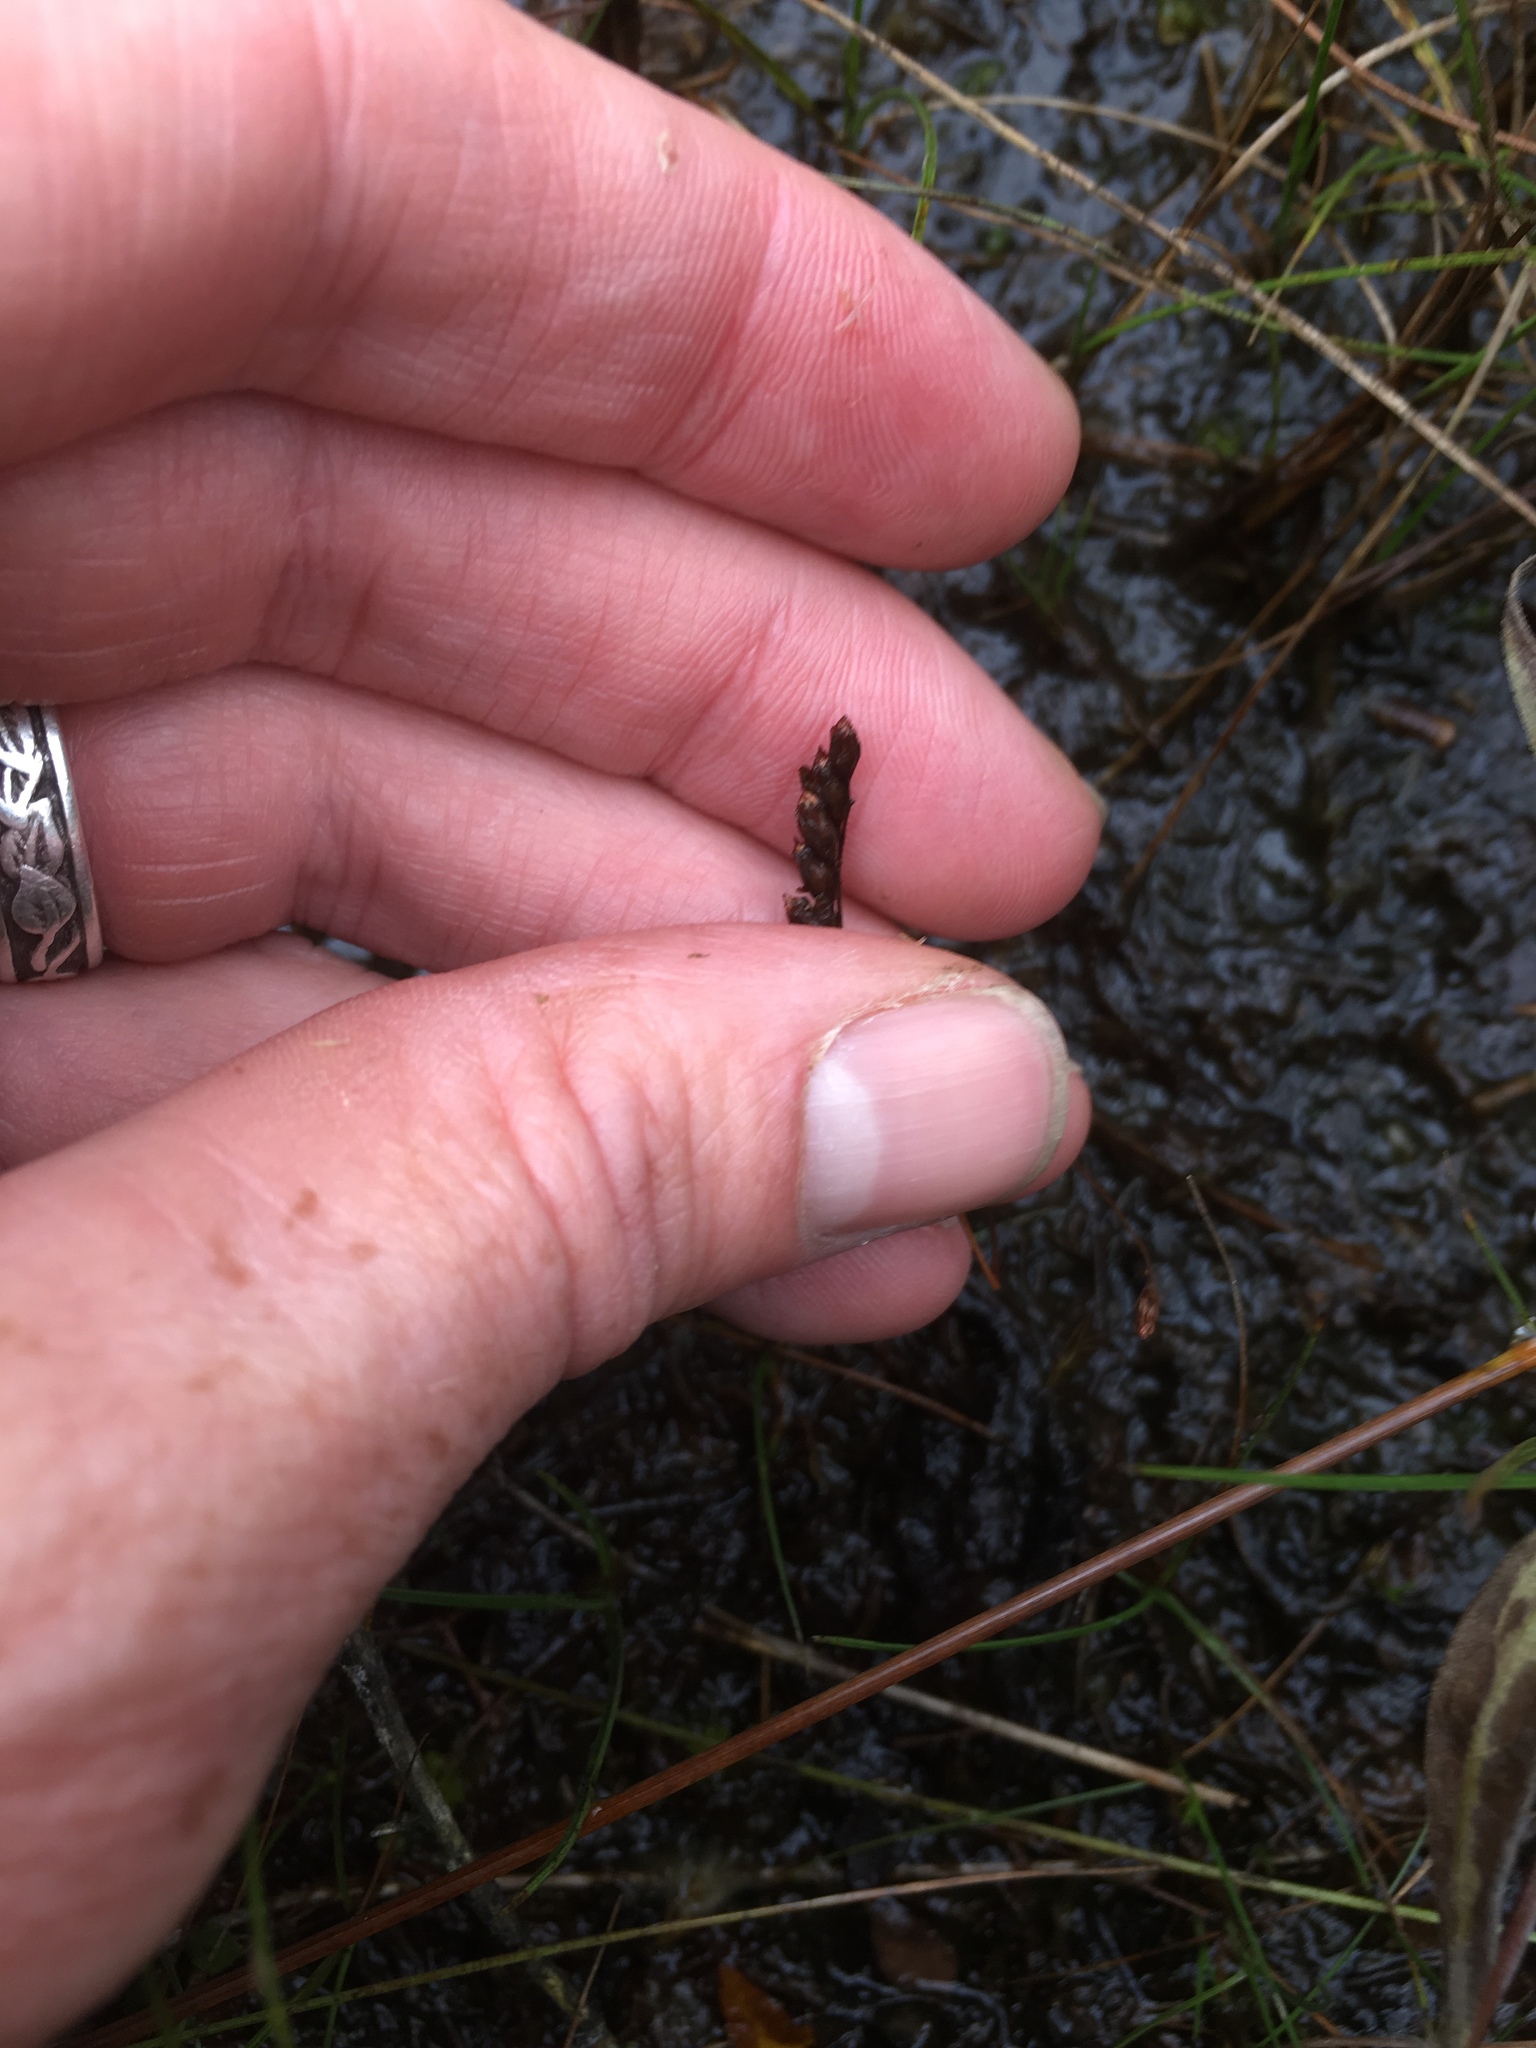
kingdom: Plantae
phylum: Tracheophyta
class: Magnoliopsida
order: Caryophyllales
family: Droseraceae
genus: Drosera
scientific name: Drosera rotundifolia
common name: Round-leaved sundew
